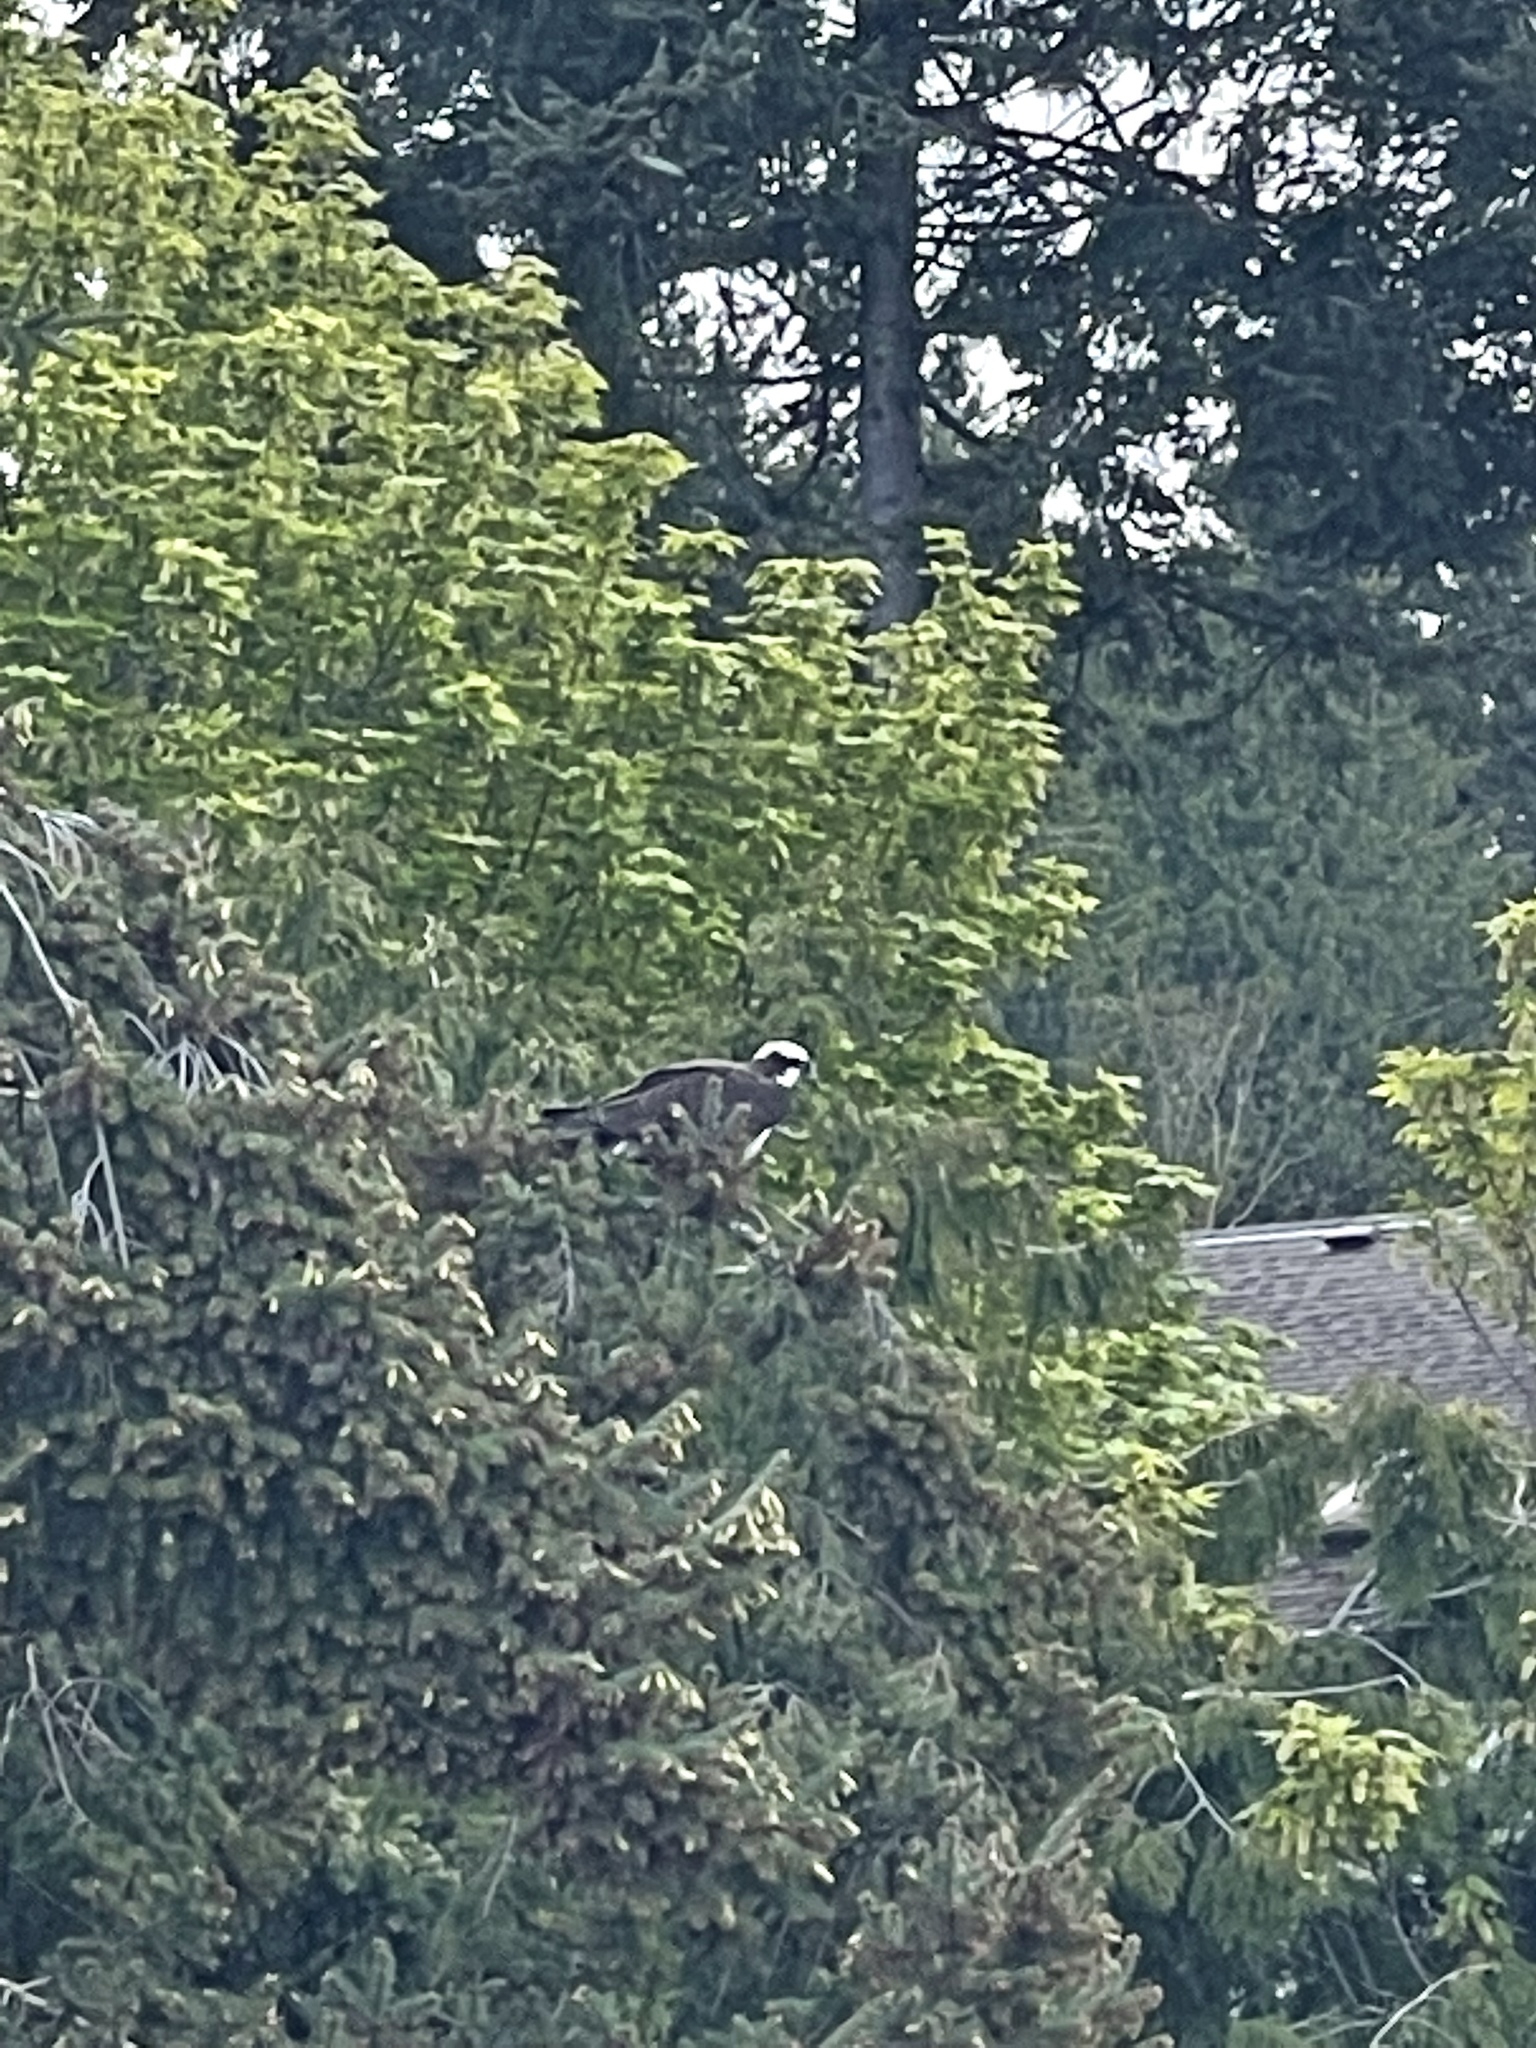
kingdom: Animalia
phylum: Chordata
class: Aves
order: Accipitriformes
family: Pandionidae
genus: Pandion
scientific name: Pandion haliaetus
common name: Osprey
